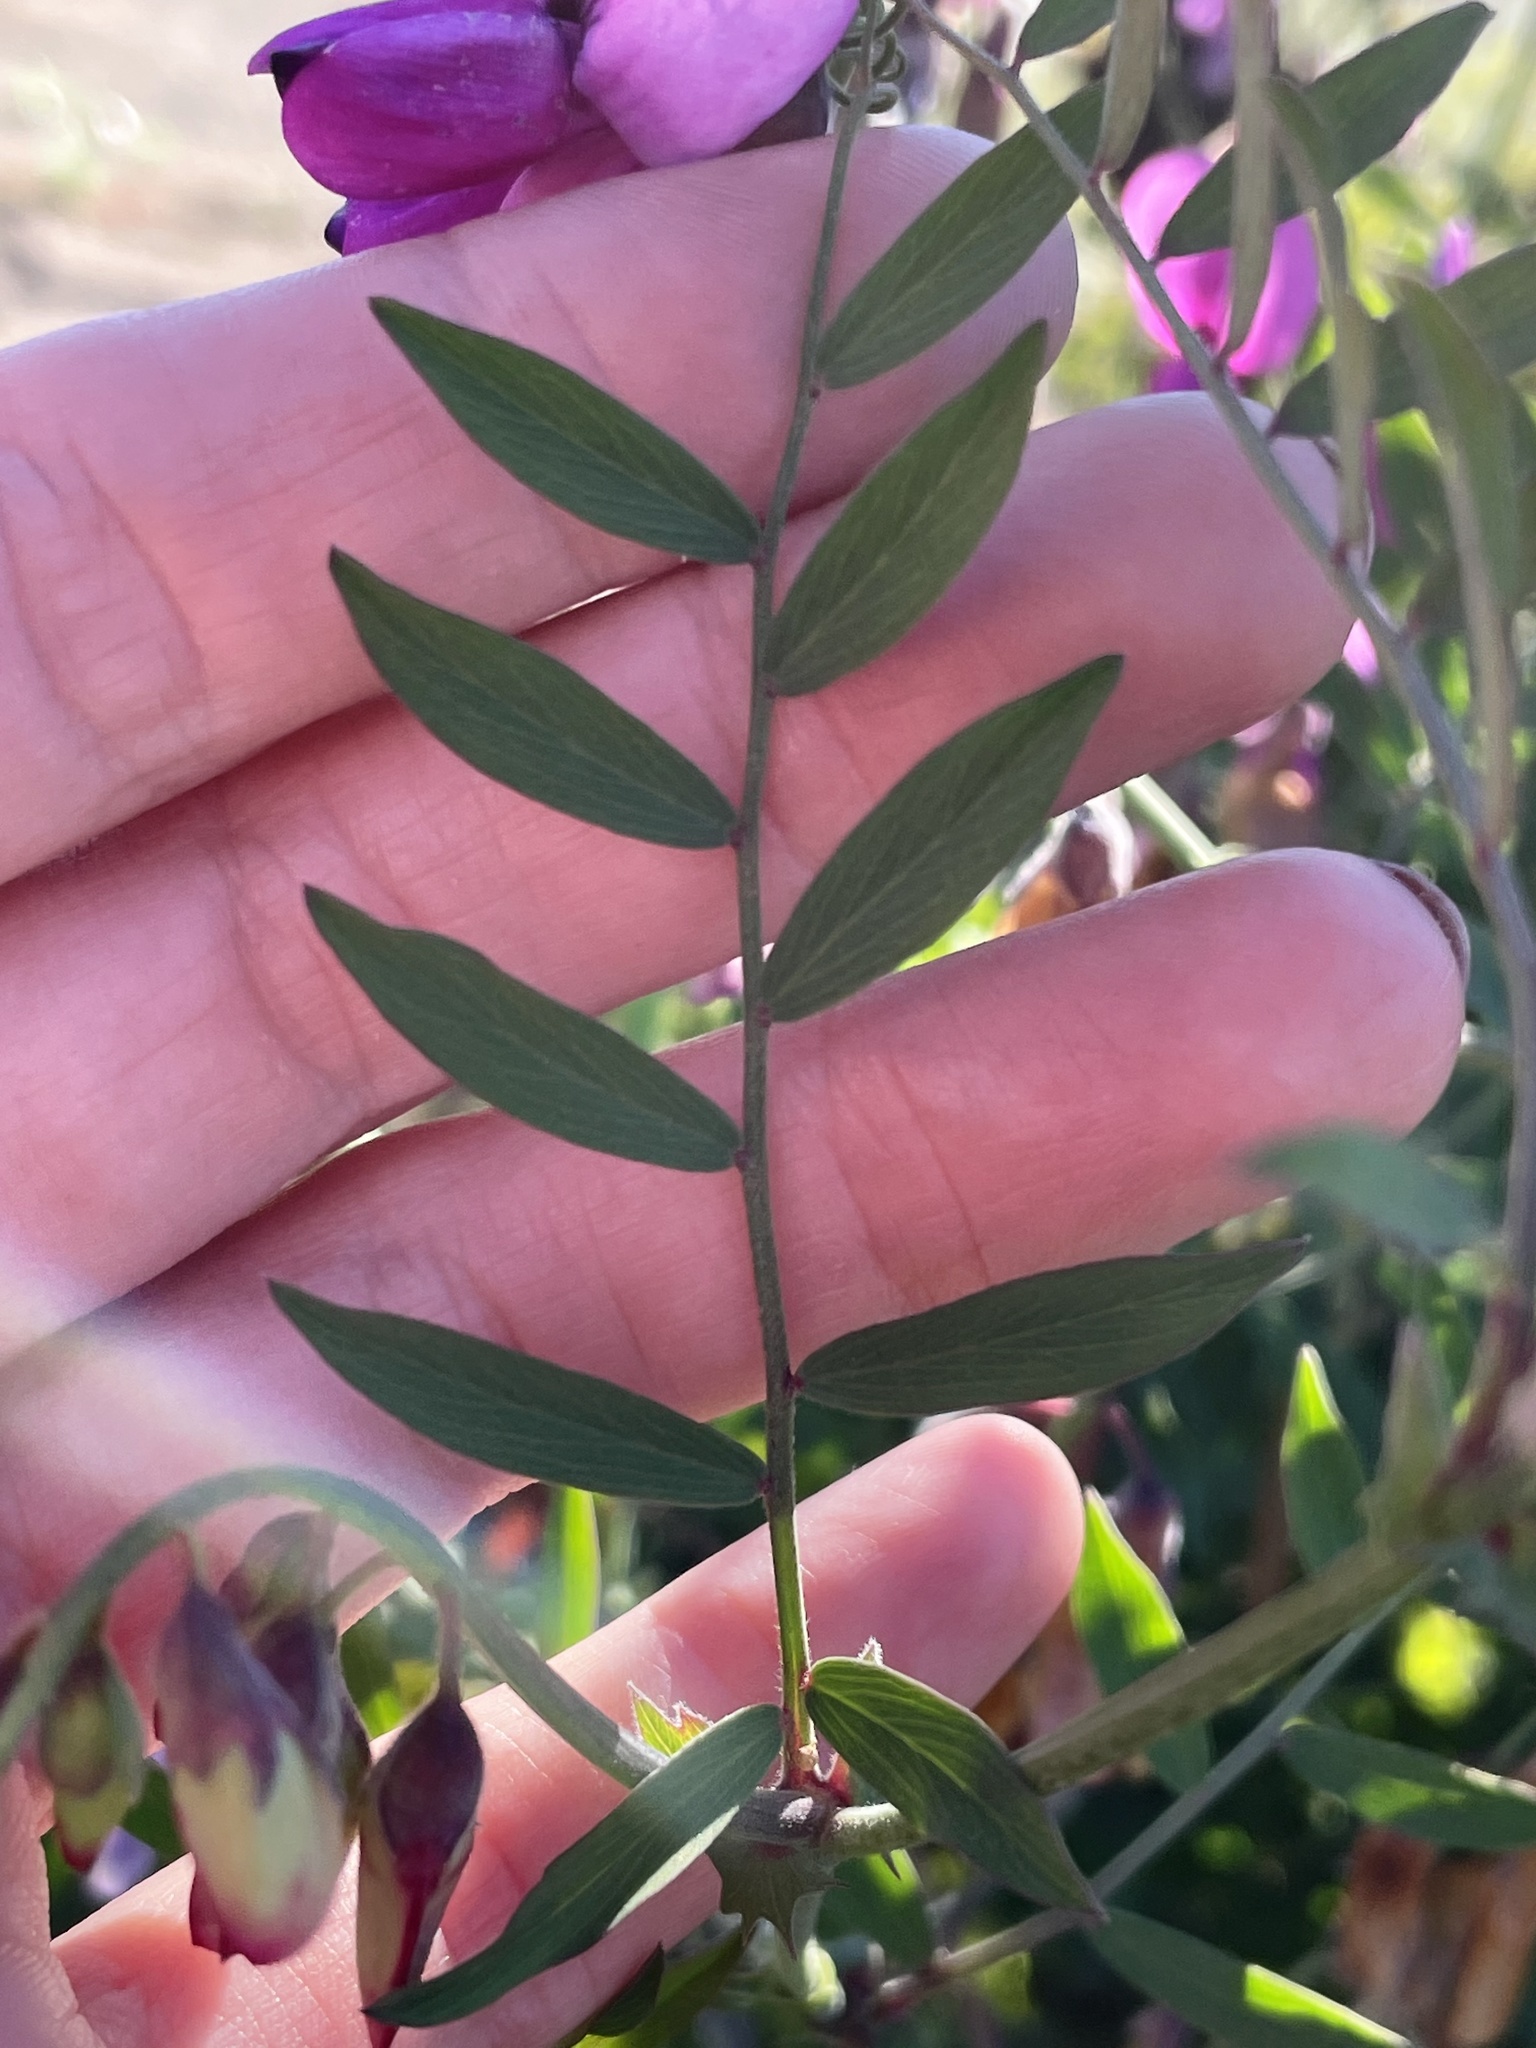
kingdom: Plantae
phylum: Tracheophyta
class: Magnoliopsida
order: Fabales
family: Fabaceae
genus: Lathyrus
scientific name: Lathyrus vestitus
